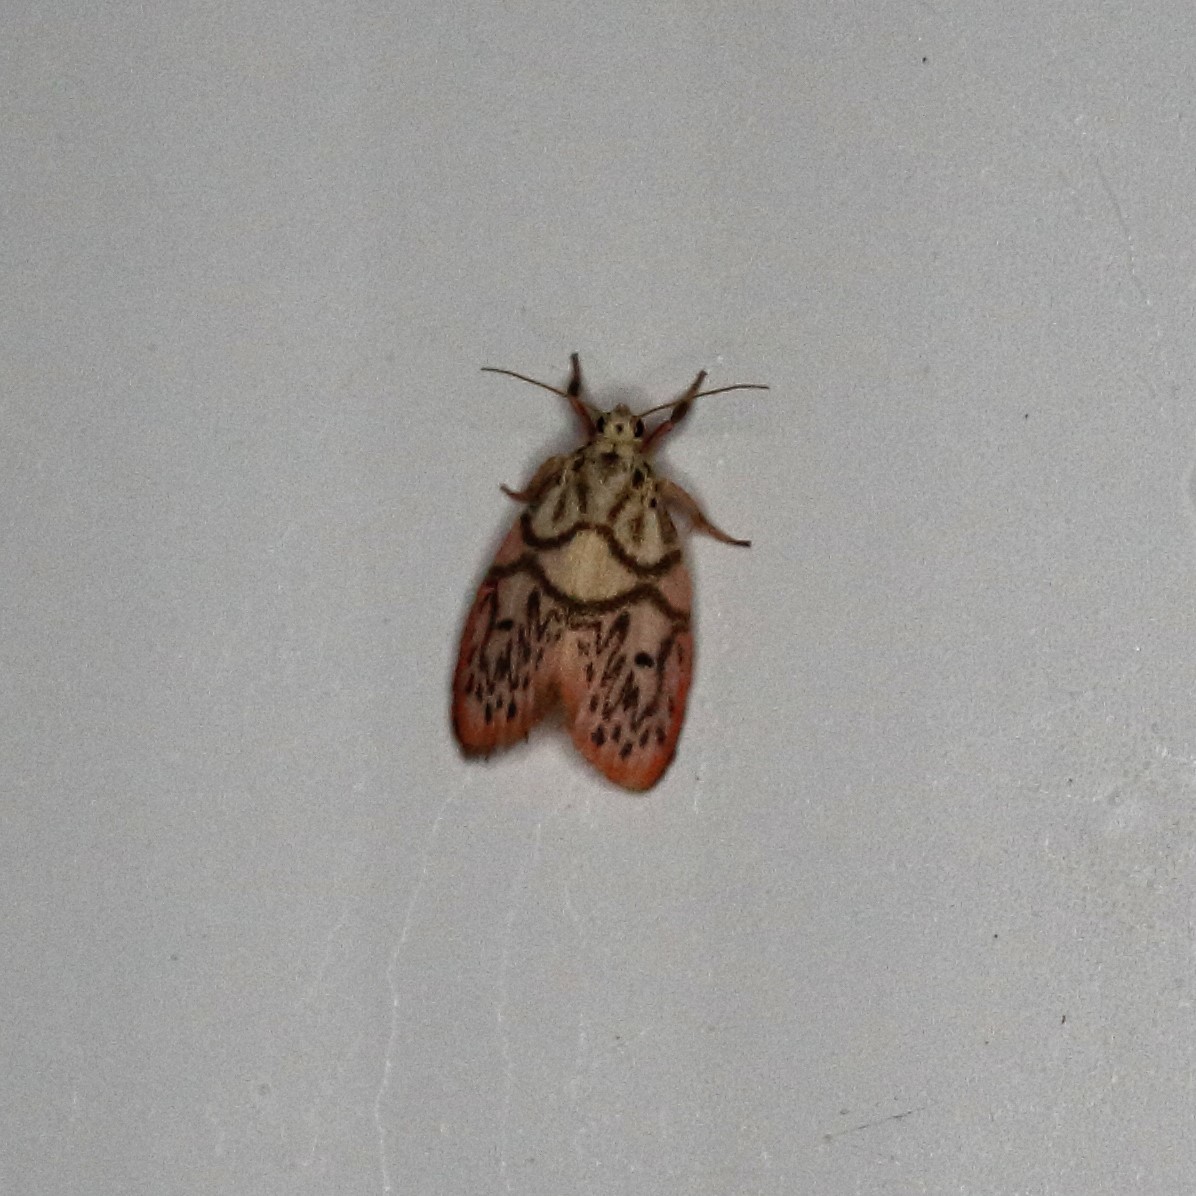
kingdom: Animalia
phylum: Arthropoda
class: Insecta
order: Lepidoptera
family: Erebidae
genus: Miltochrista
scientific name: Miltochrista irregularis
